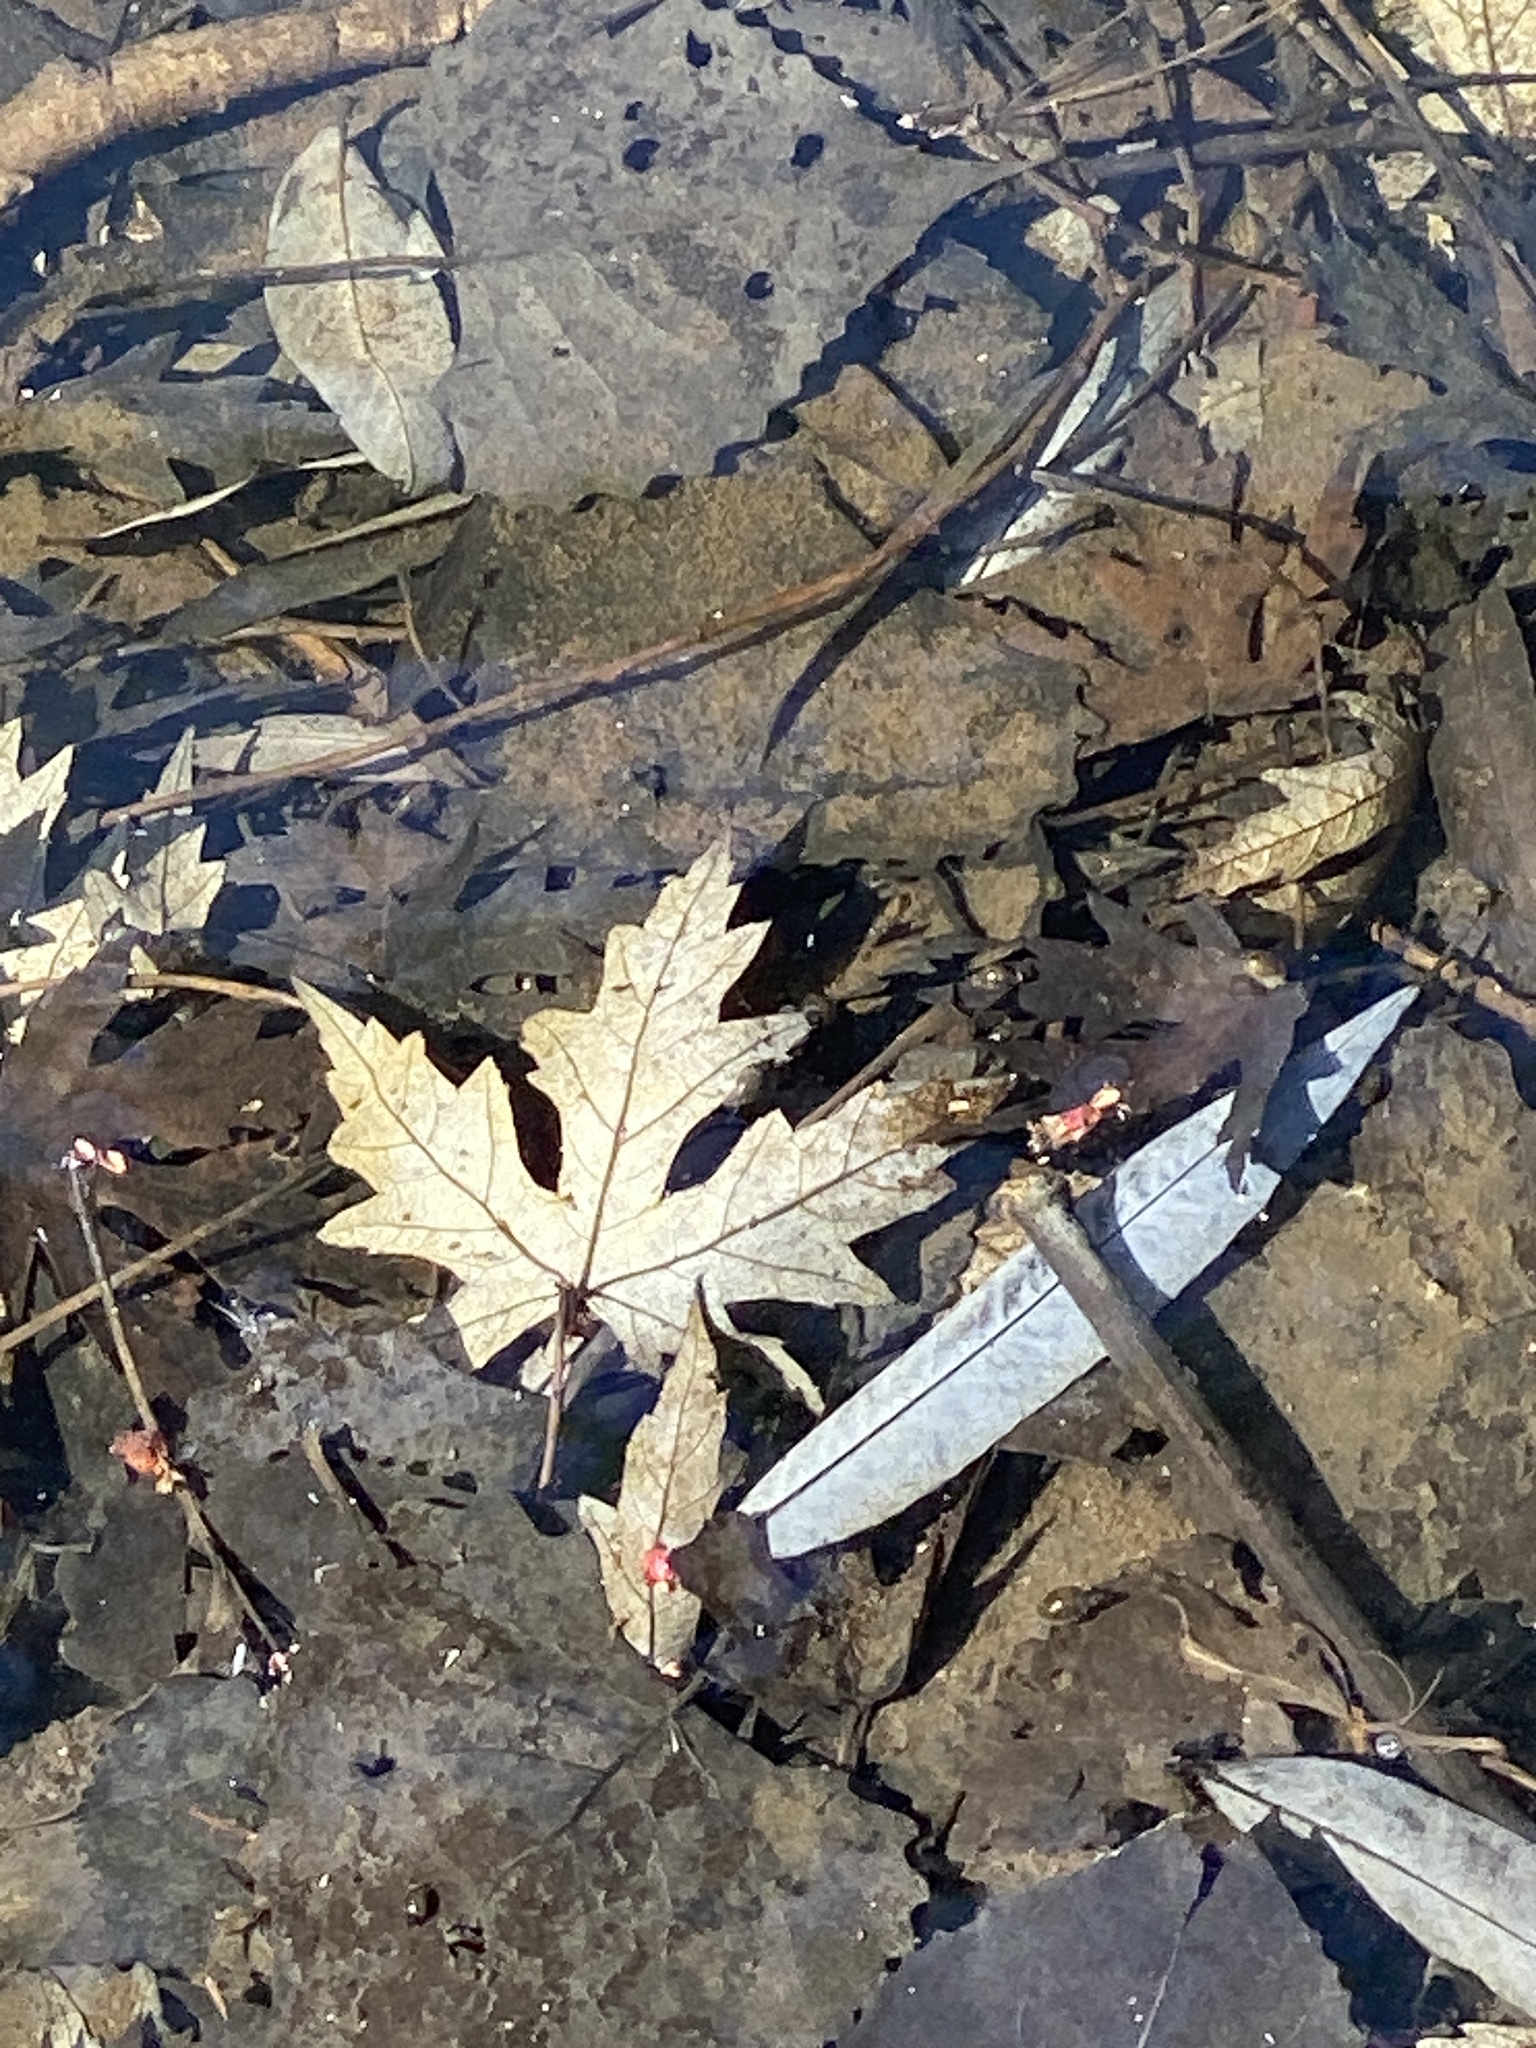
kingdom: Plantae
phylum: Tracheophyta
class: Magnoliopsida
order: Sapindales
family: Sapindaceae
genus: Acer
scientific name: Acer saccharinum
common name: Silver maple
